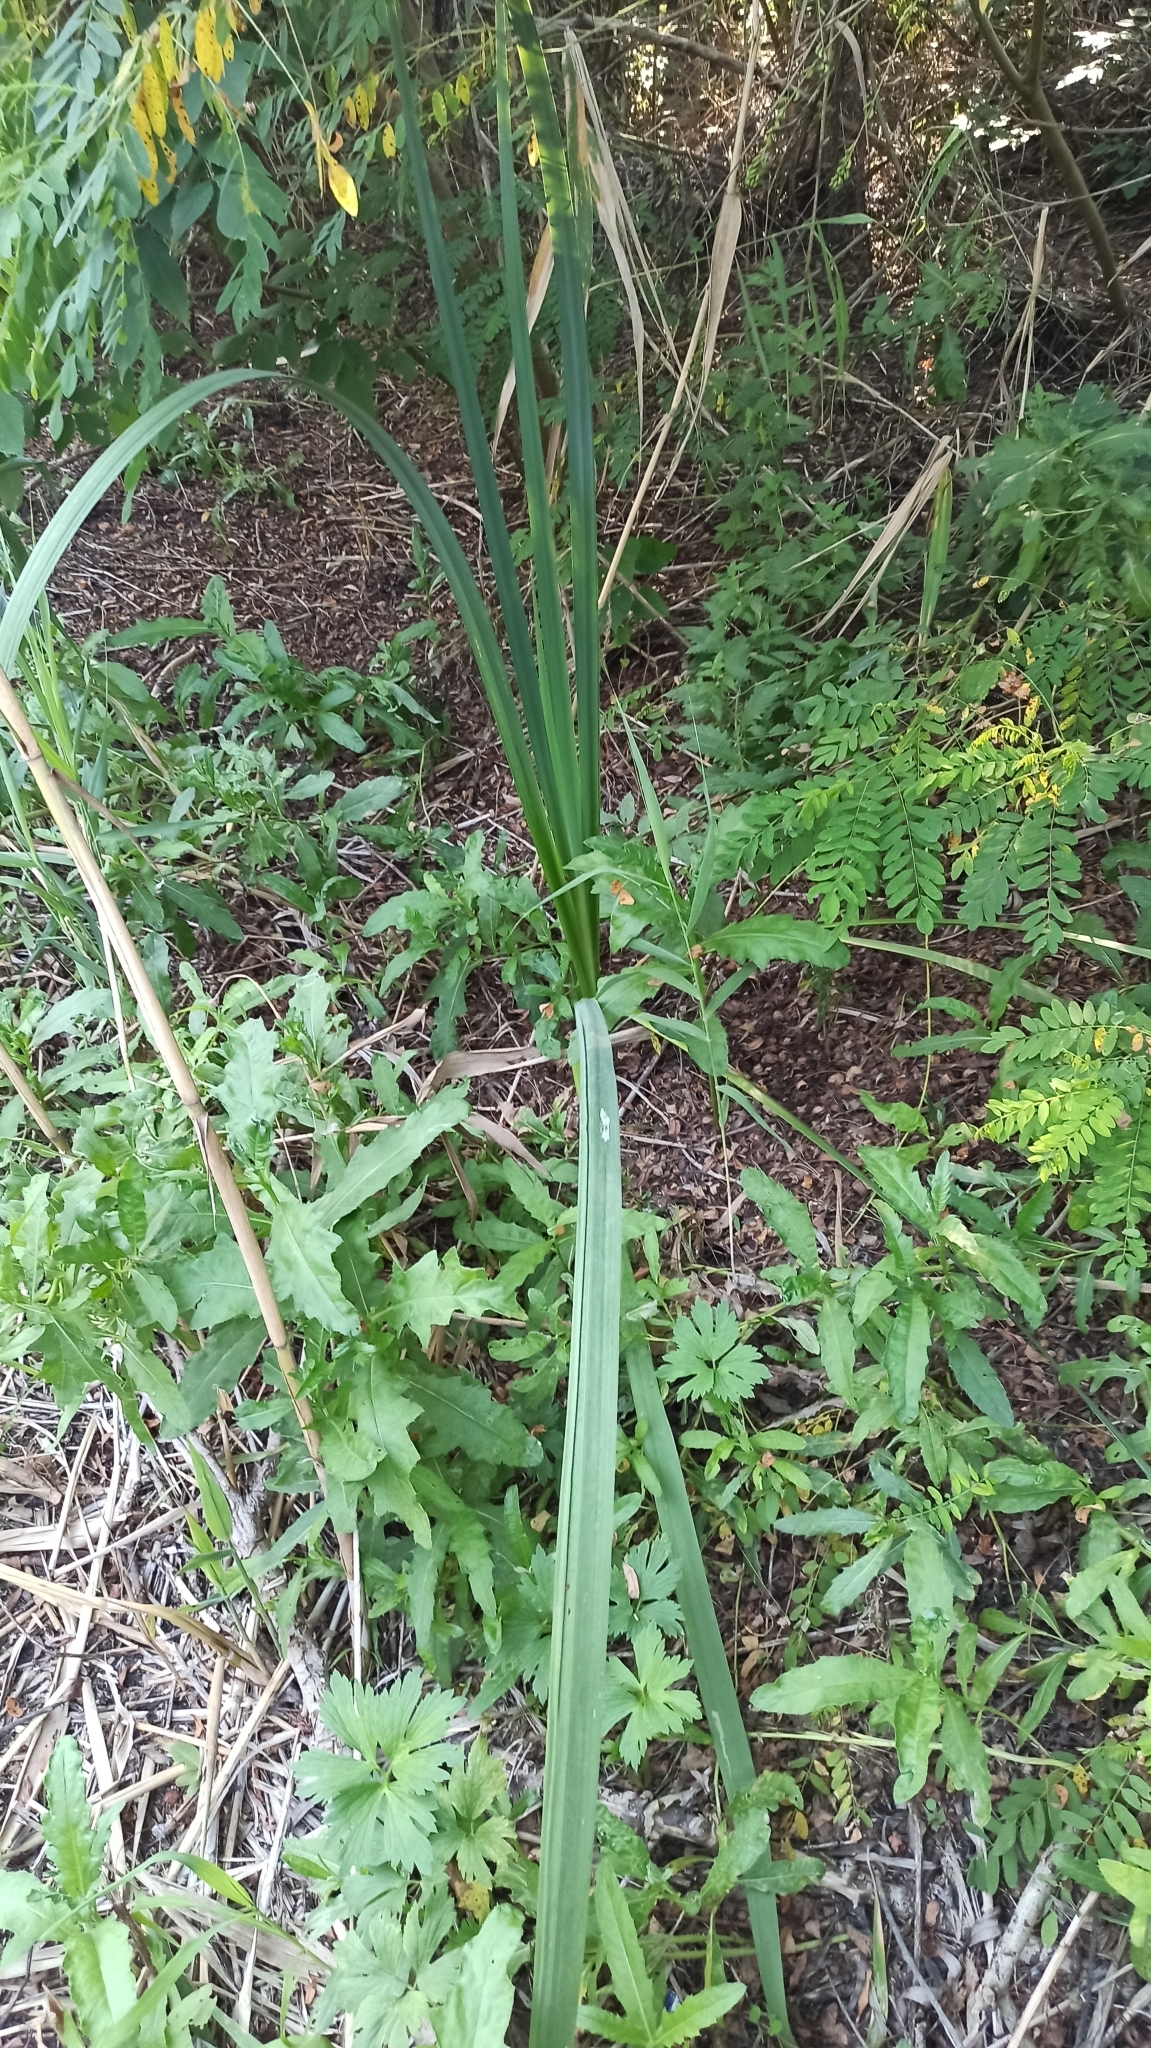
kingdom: Plantae
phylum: Tracheophyta
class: Liliopsida
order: Asparagales
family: Iridaceae
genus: Iris
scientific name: Iris pseudacorus
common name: Yellow flag
